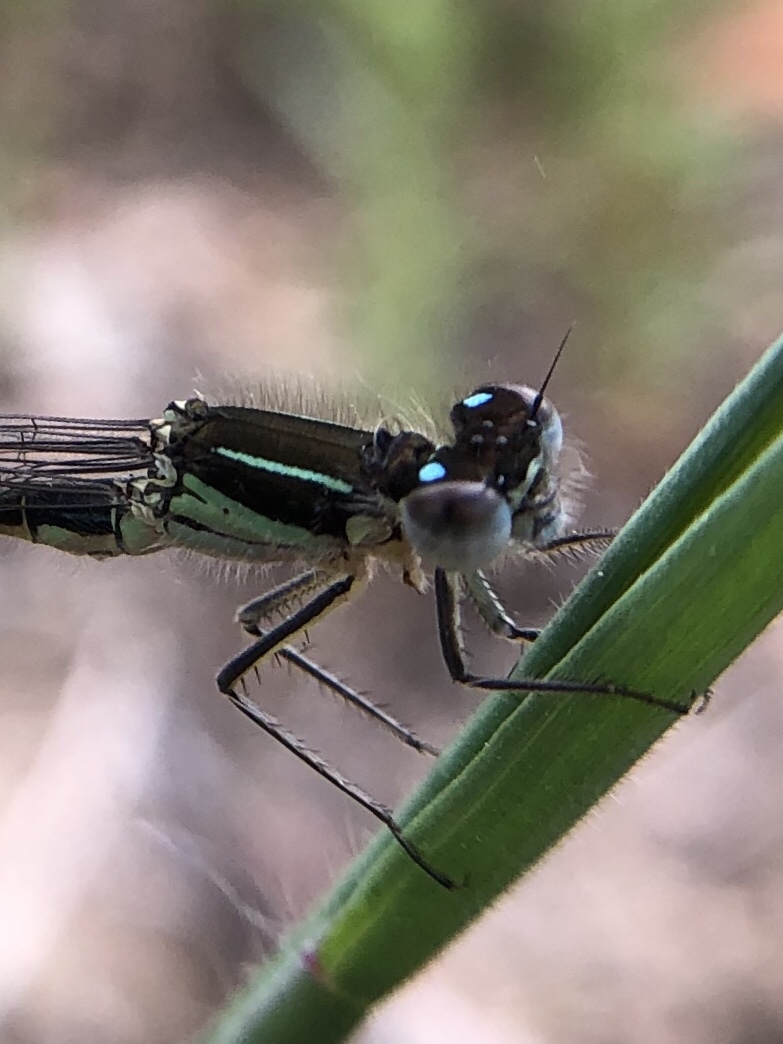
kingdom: Animalia
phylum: Arthropoda
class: Insecta
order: Odonata
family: Coenagrionidae
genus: Ischnura
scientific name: Ischnura graellsii
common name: Iberian bluetail
